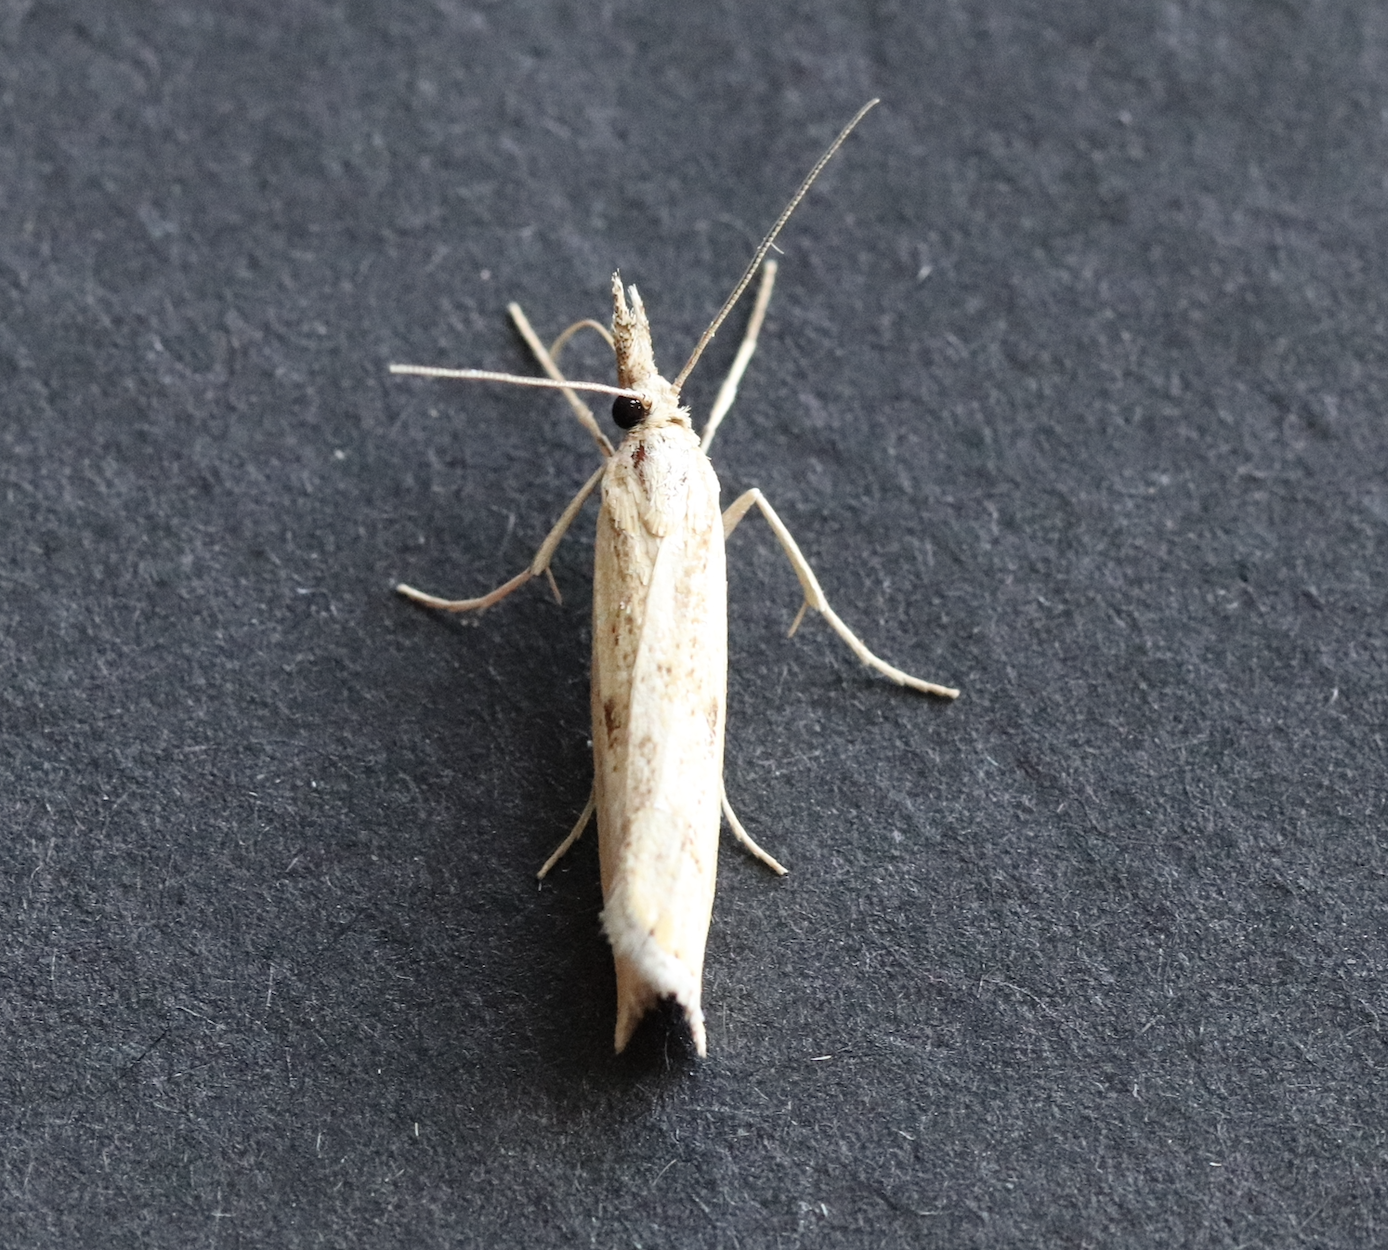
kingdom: Animalia
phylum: Arthropoda
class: Insecta
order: Lepidoptera
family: Crambidae
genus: Agriphila
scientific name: Agriphila inquinatella
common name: Barred grass-veneer
